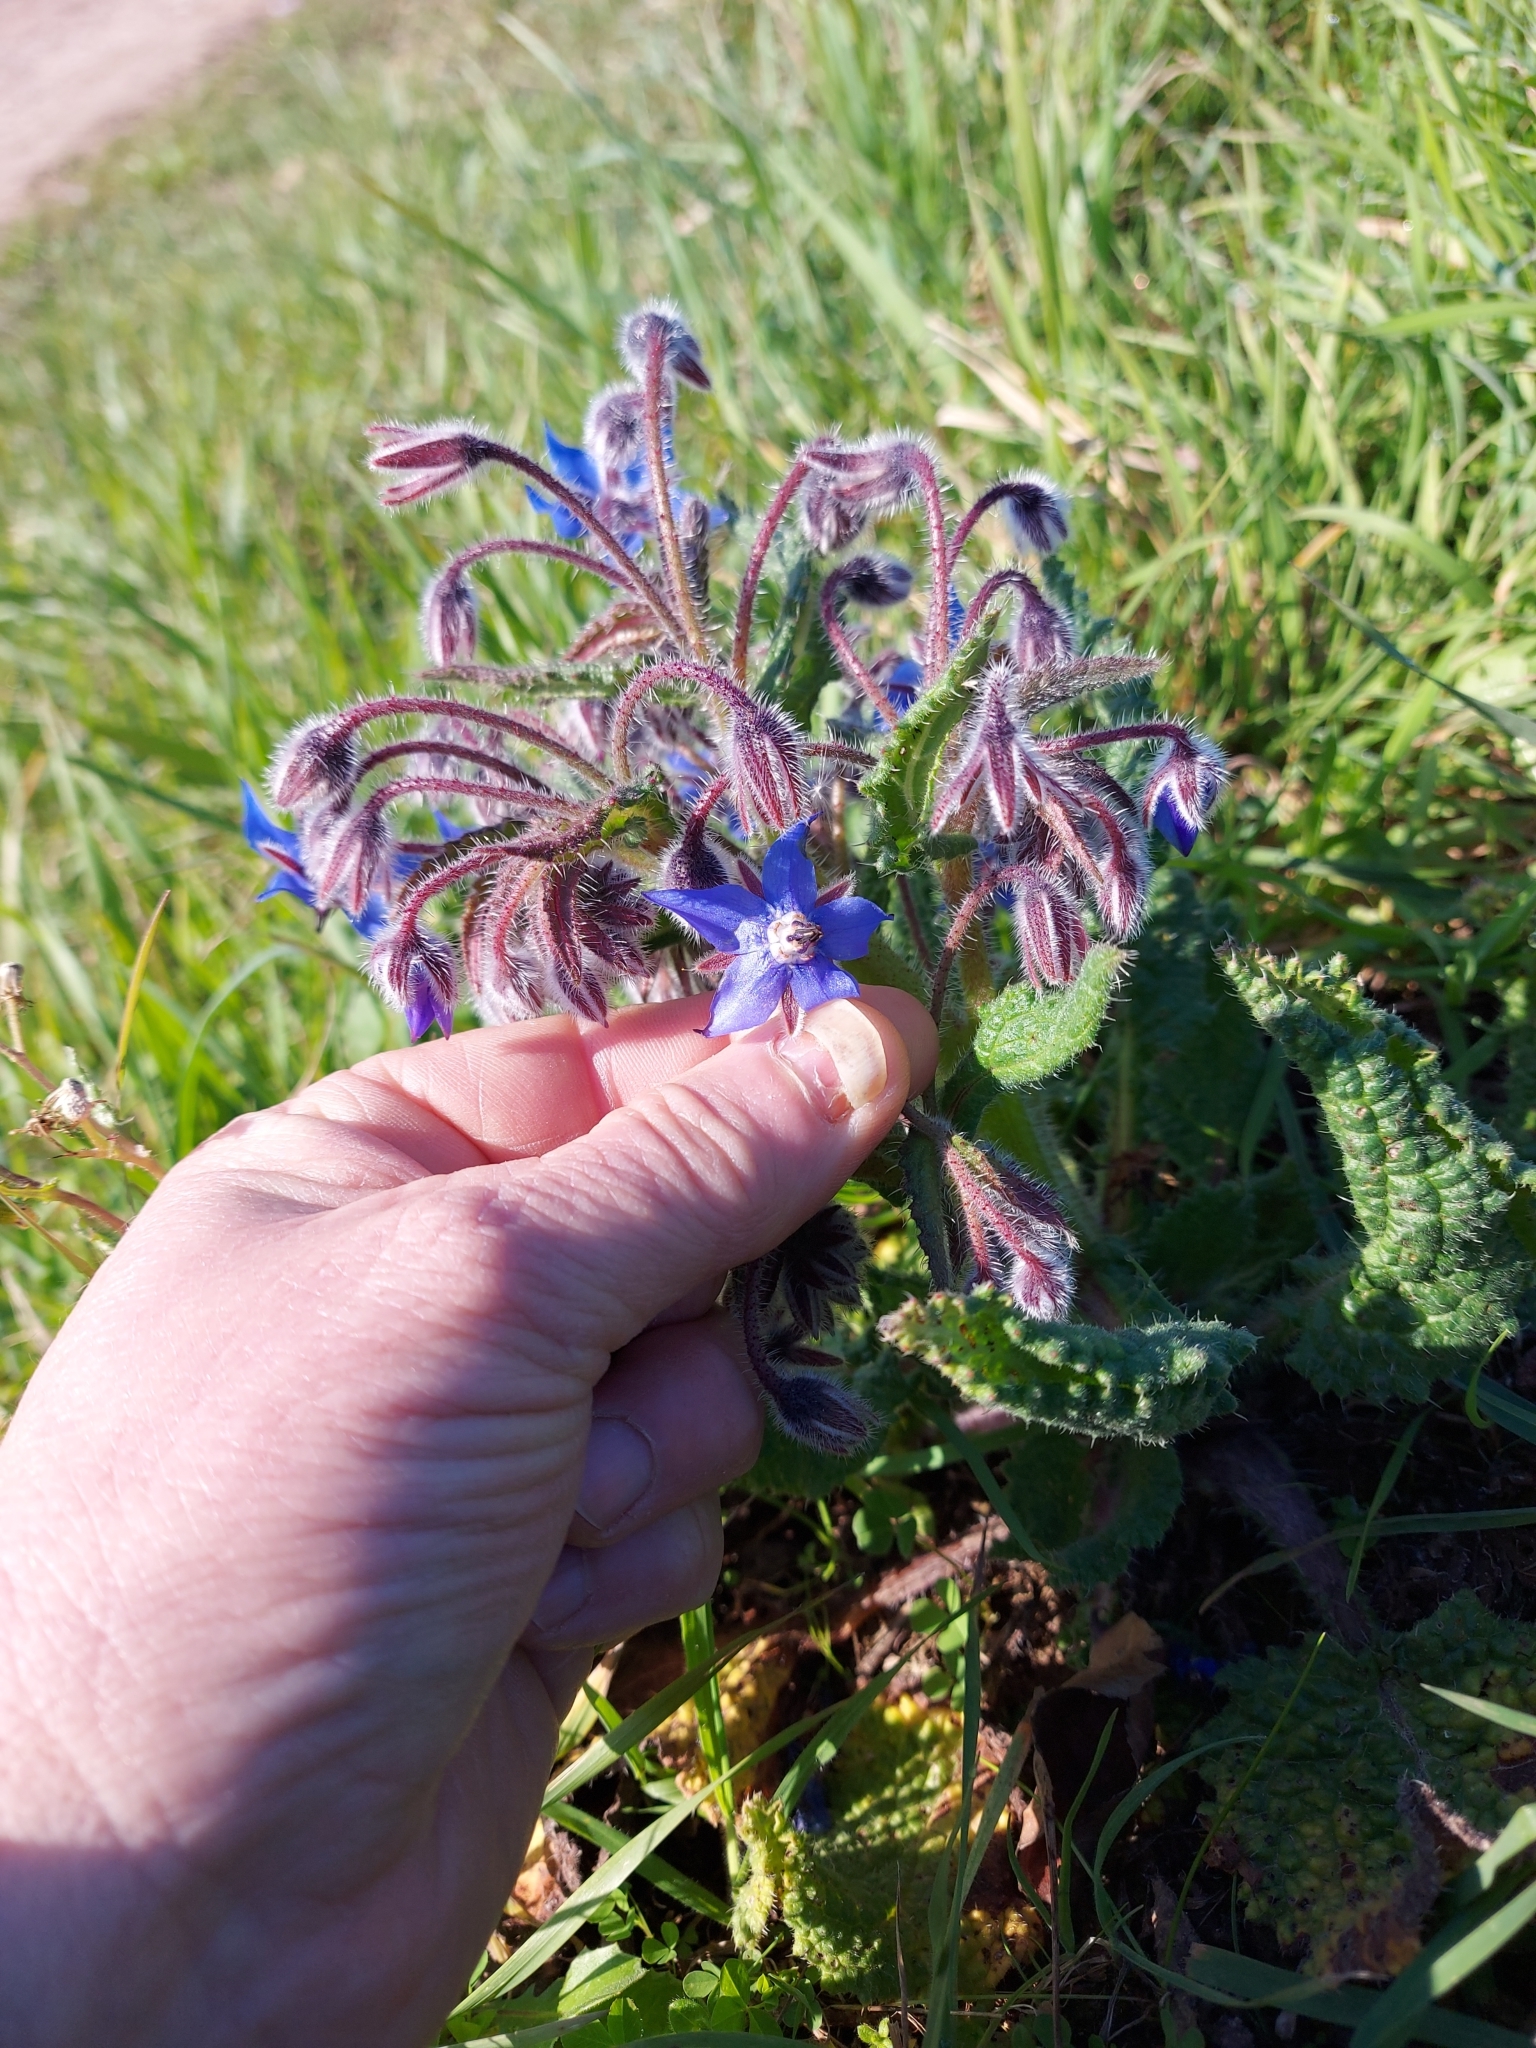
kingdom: Plantae
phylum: Tracheophyta
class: Magnoliopsida
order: Boraginales
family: Boraginaceae
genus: Borago
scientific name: Borago officinalis
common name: Borage
